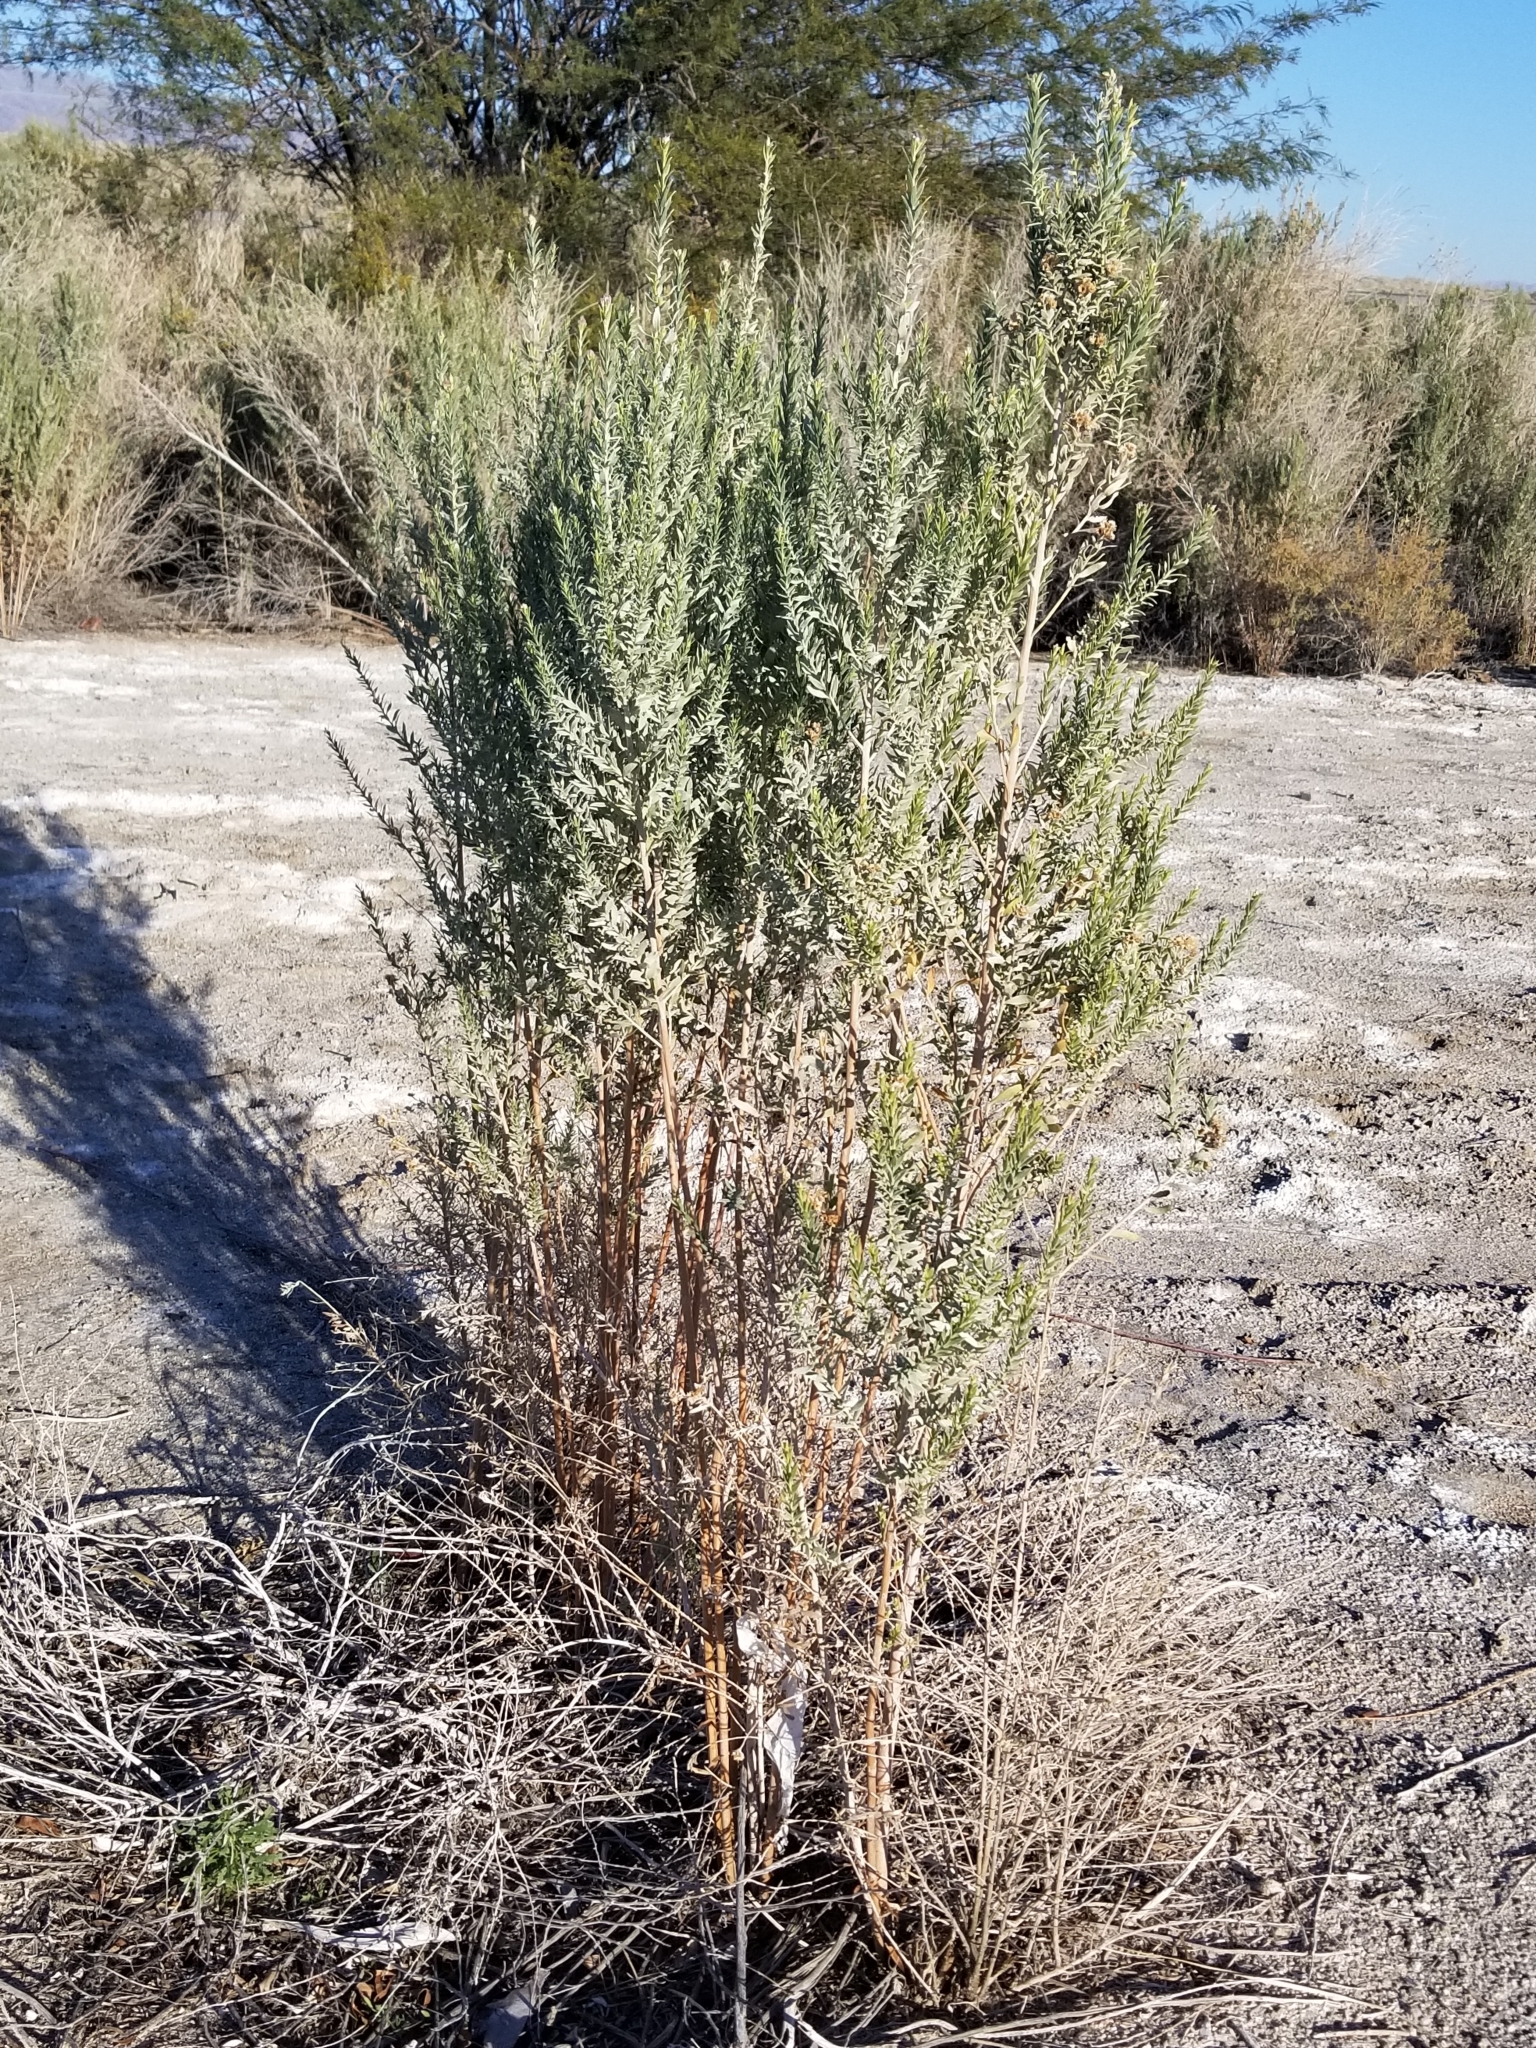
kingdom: Plantae
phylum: Tracheophyta
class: Magnoliopsida
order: Asterales
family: Asteraceae
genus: Pluchea
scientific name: Pluchea sericea
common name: Arrow-weed
